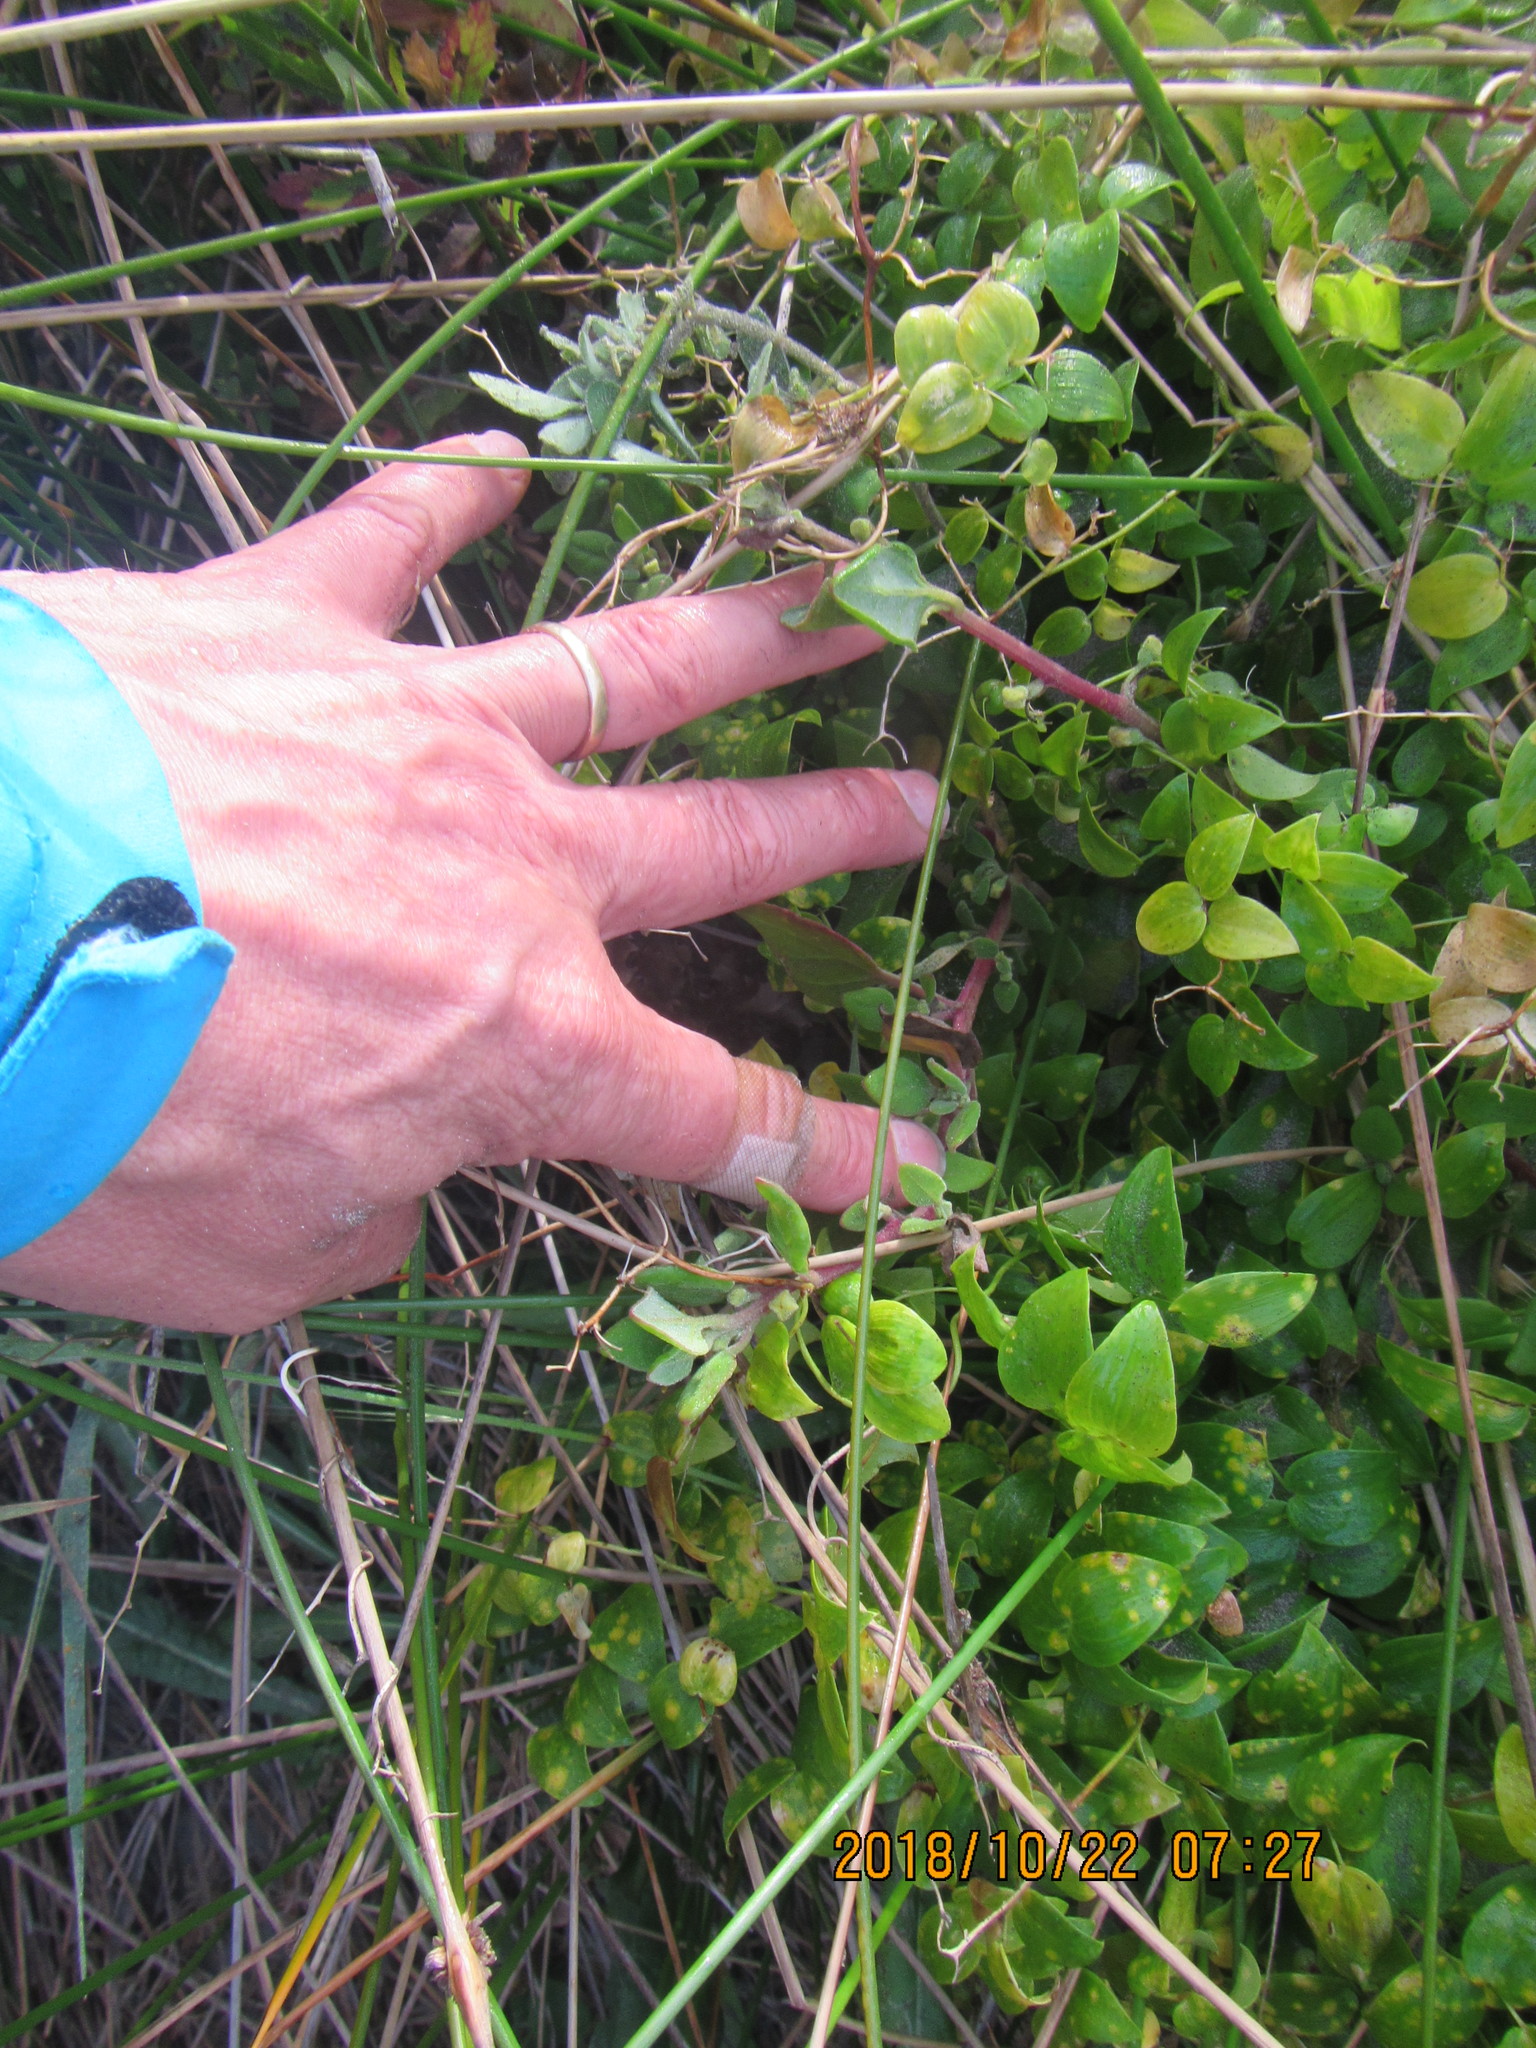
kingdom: Plantae
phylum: Tracheophyta
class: Magnoliopsida
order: Caryophyllales
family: Aizoaceae
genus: Tetragonia
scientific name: Tetragonia implexicoma
